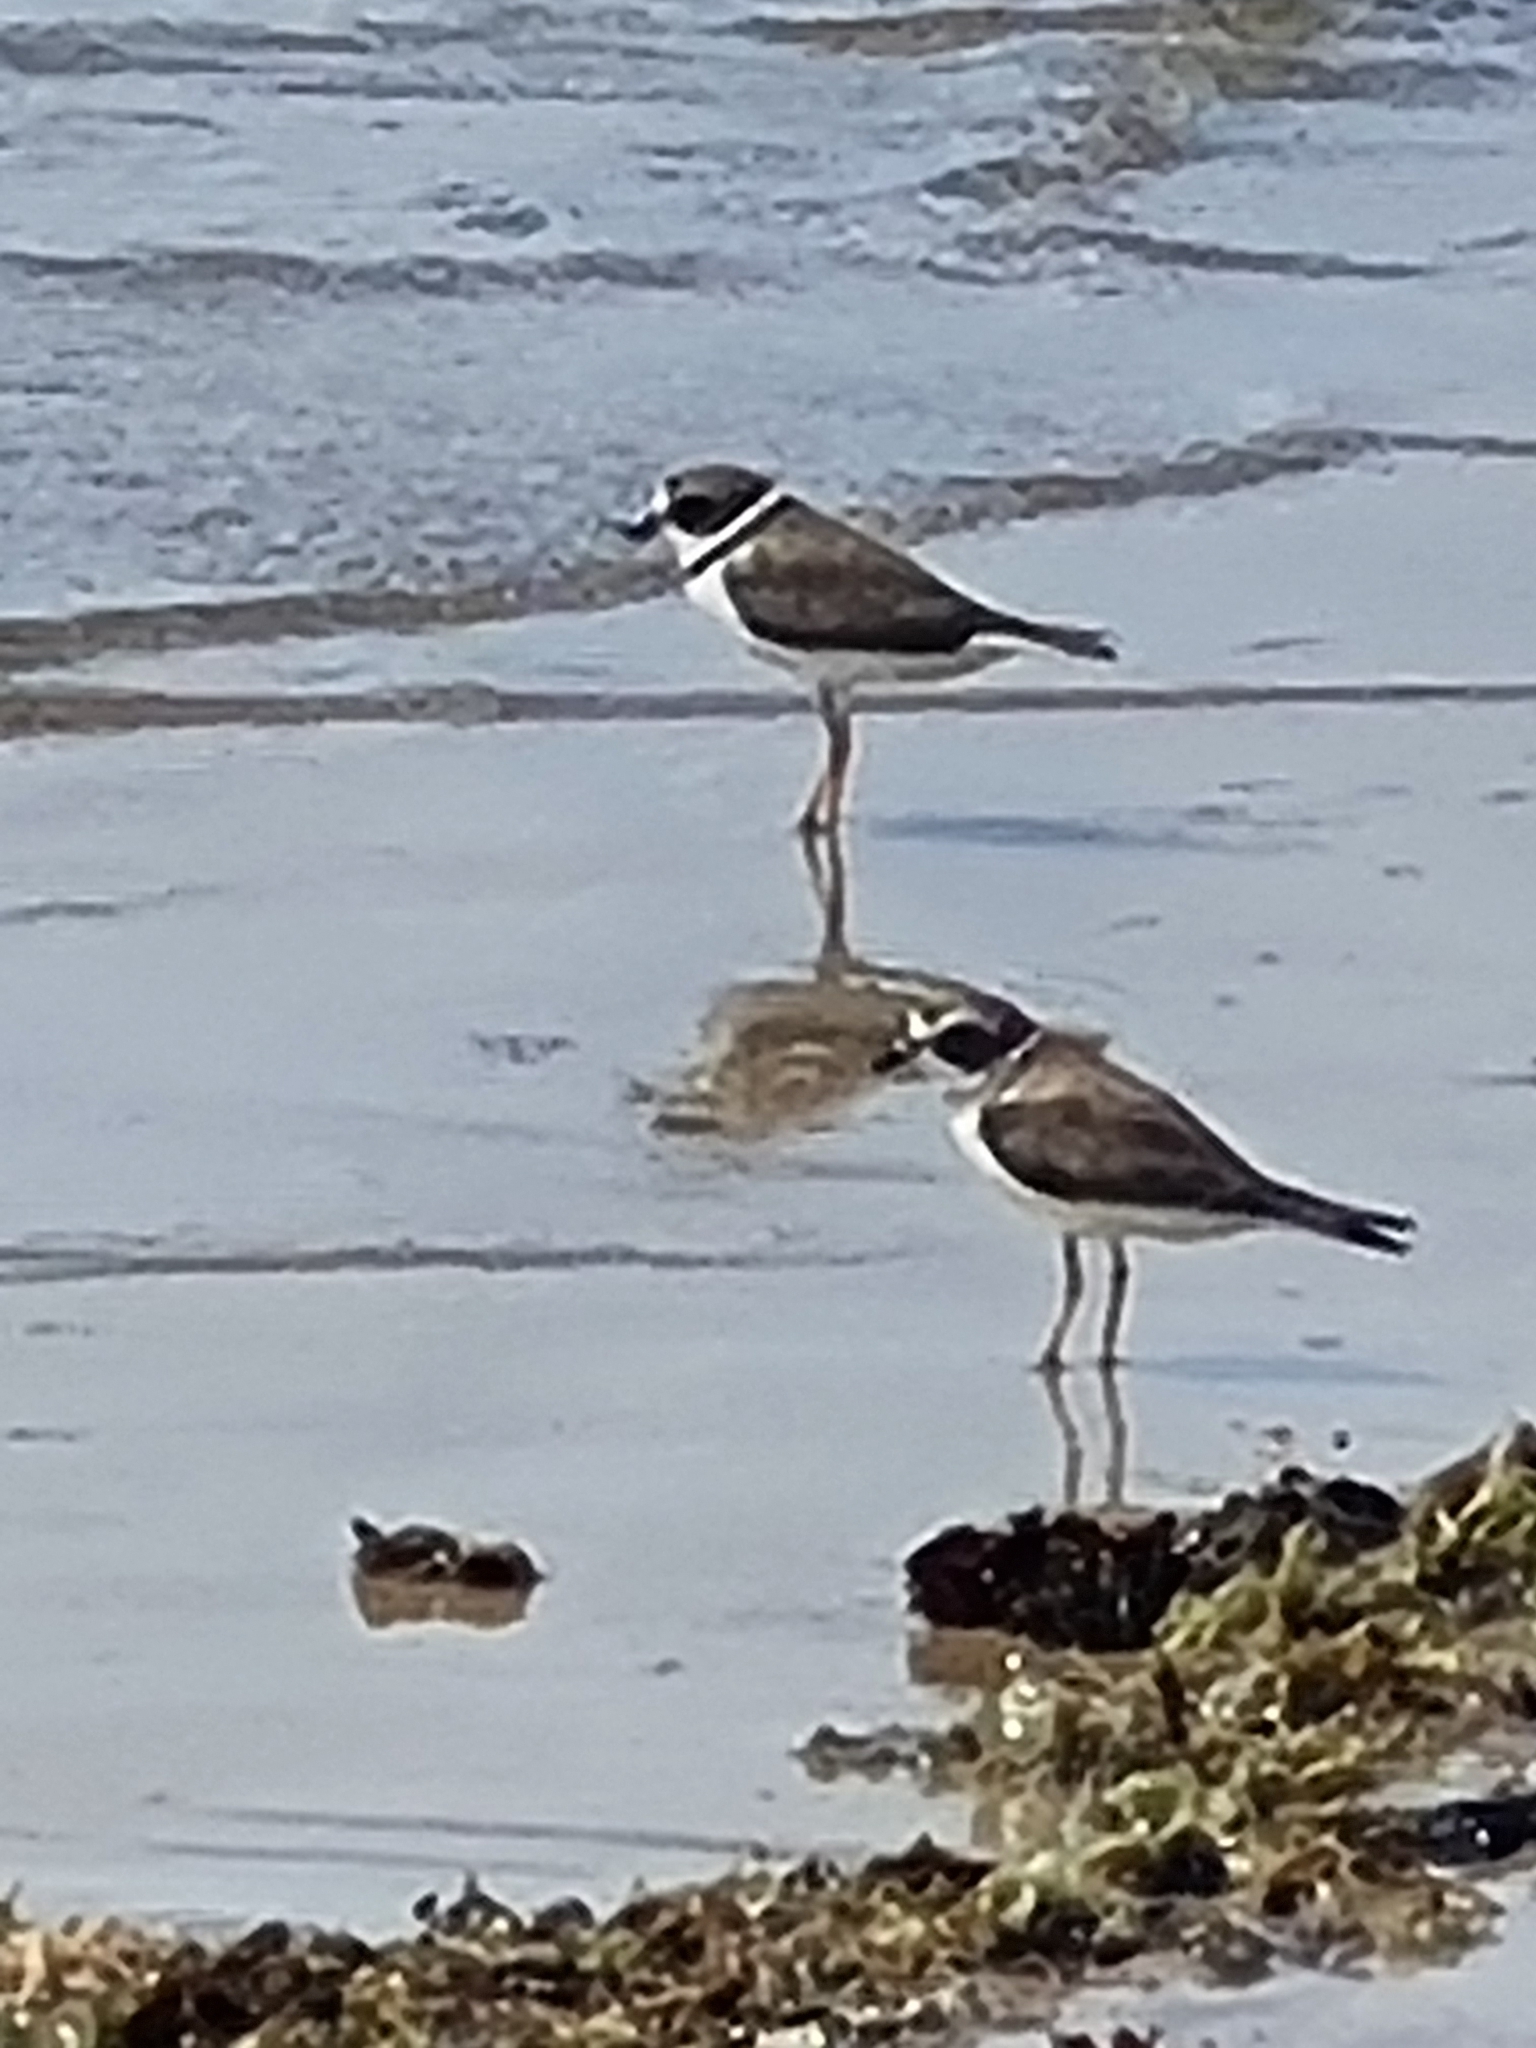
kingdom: Animalia
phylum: Chordata
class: Aves
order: Charadriiformes
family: Charadriidae
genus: Charadrius
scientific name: Charadrius semipalmatus
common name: Semipalmated plover
